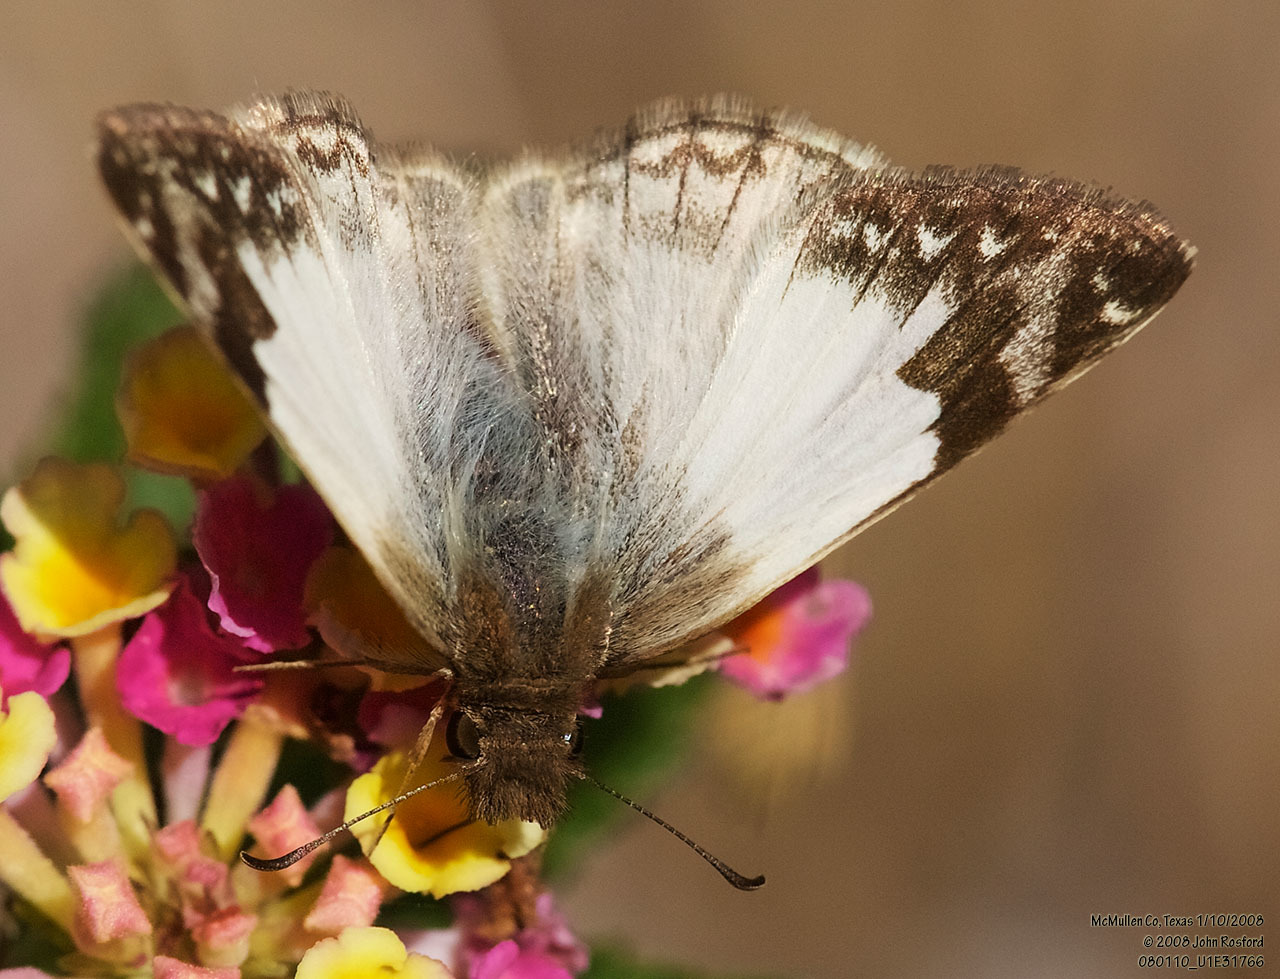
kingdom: Animalia
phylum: Arthropoda
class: Insecta
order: Lepidoptera
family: Hesperiidae
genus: Heliopetes
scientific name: Heliopetes laviana
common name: Laviana white-skipper
